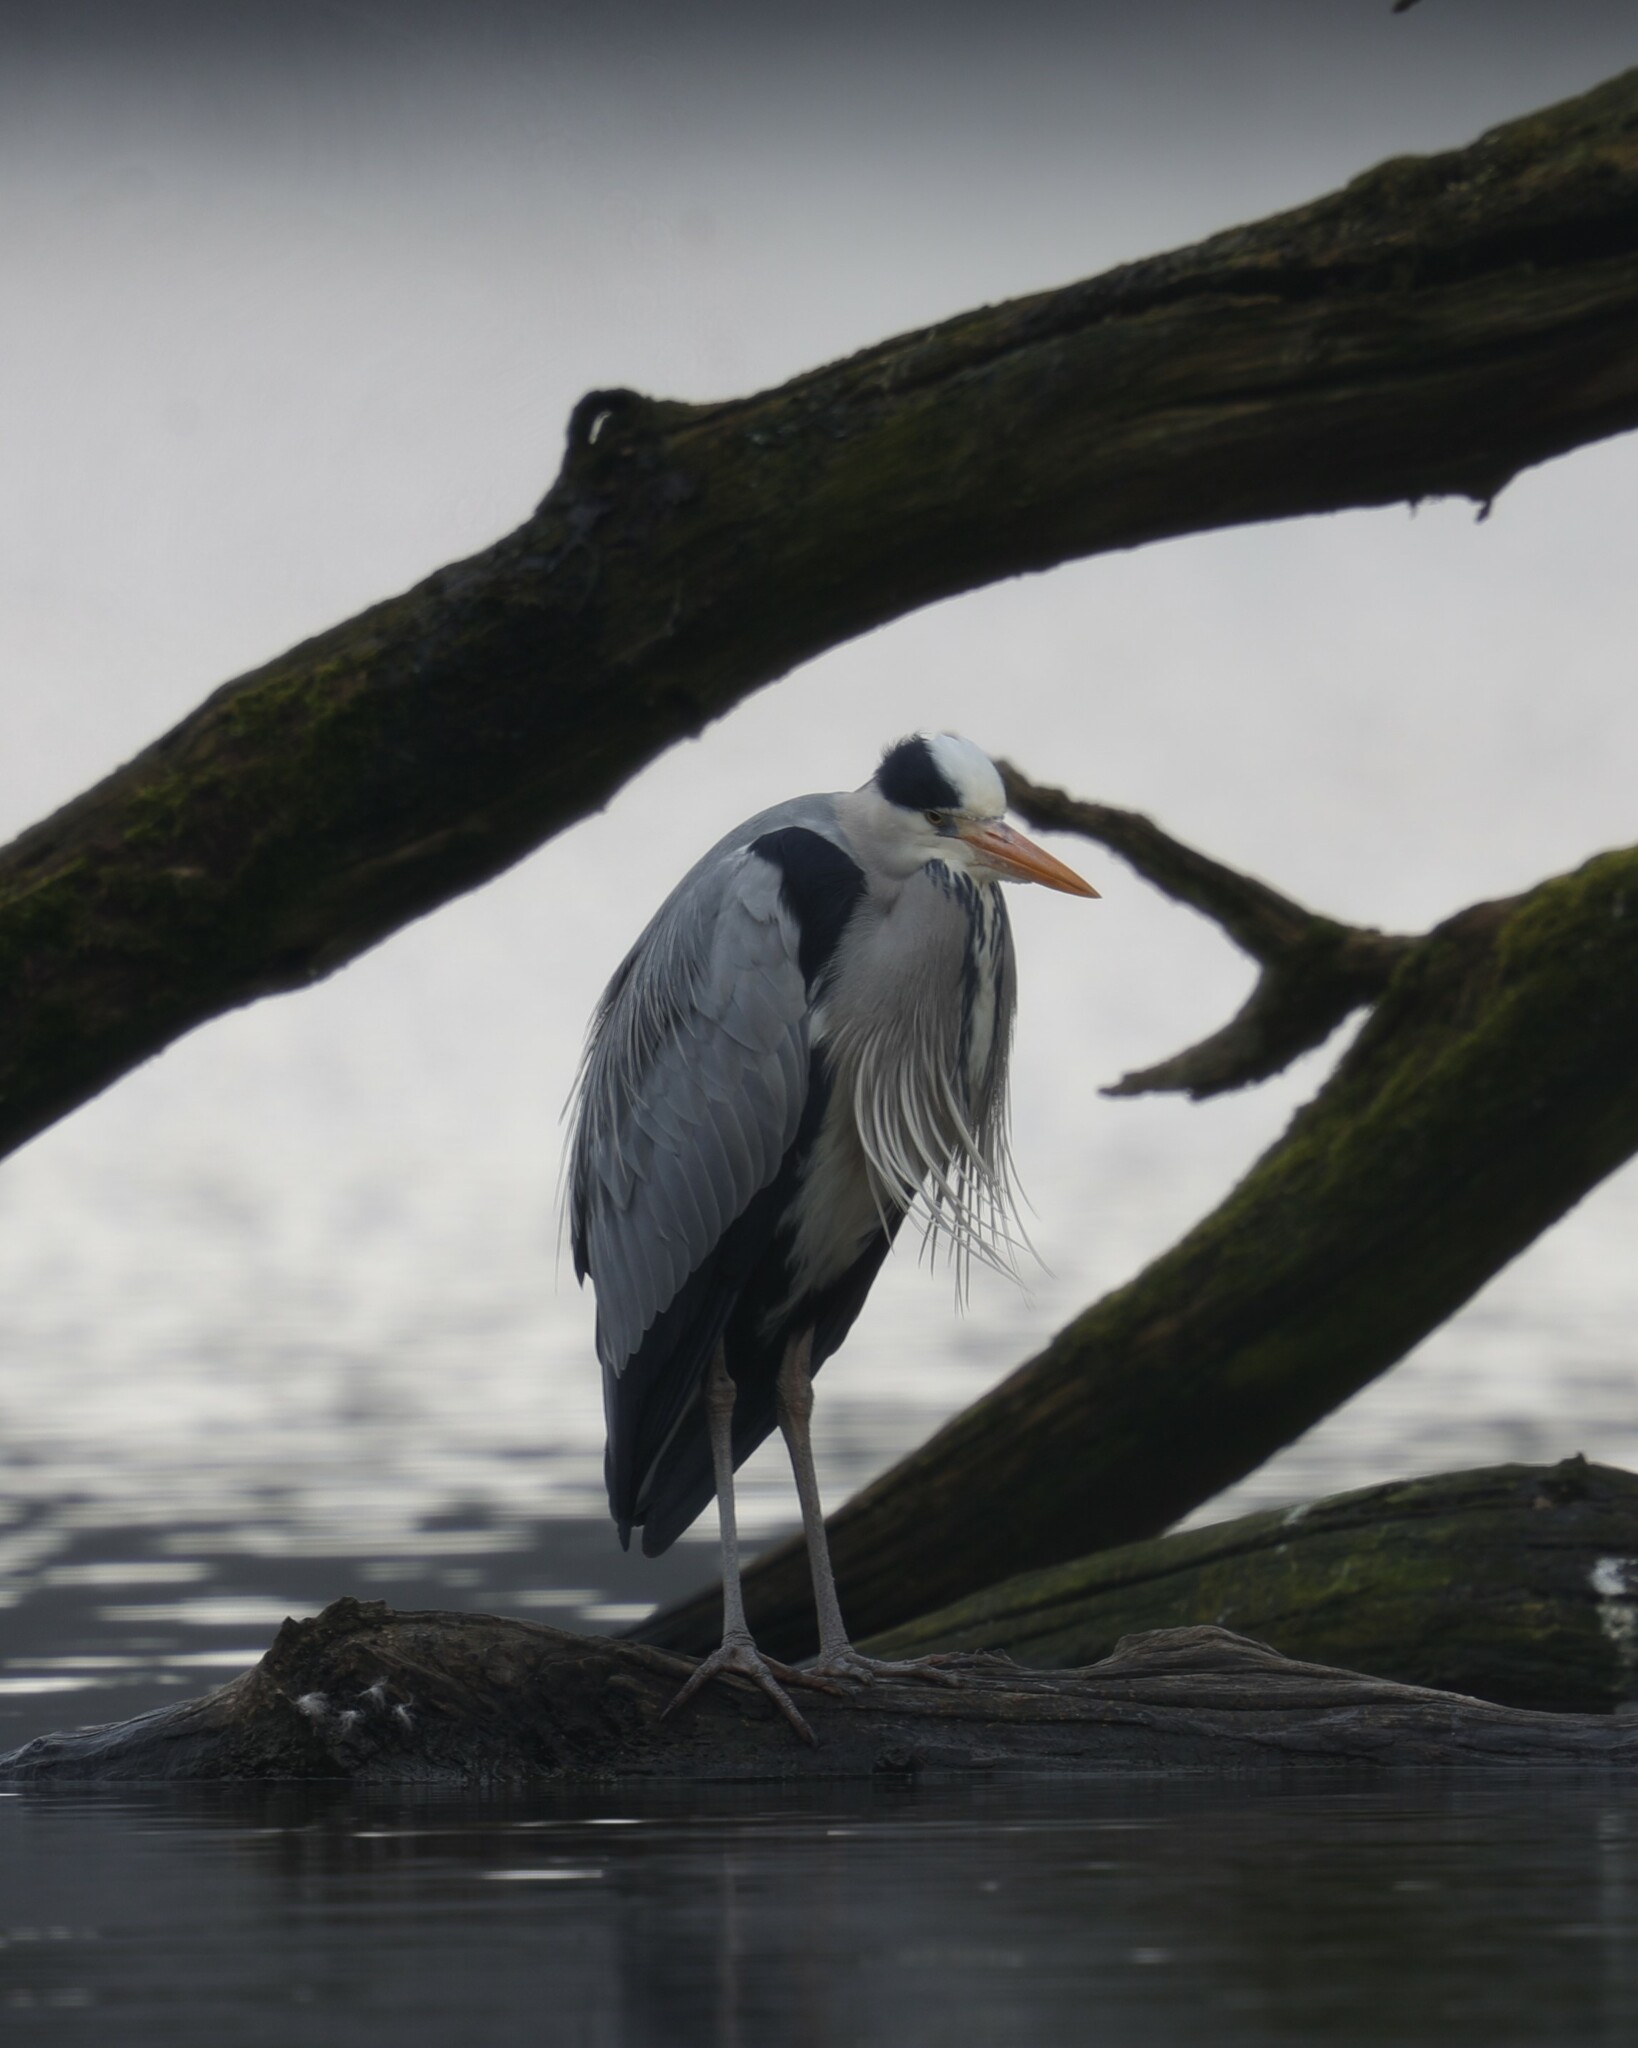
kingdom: Animalia
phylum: Chordata
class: Aves
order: Pelecaniformes
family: Ardeidae
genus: Ardea
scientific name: Ardea cinerea
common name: Grey heron
